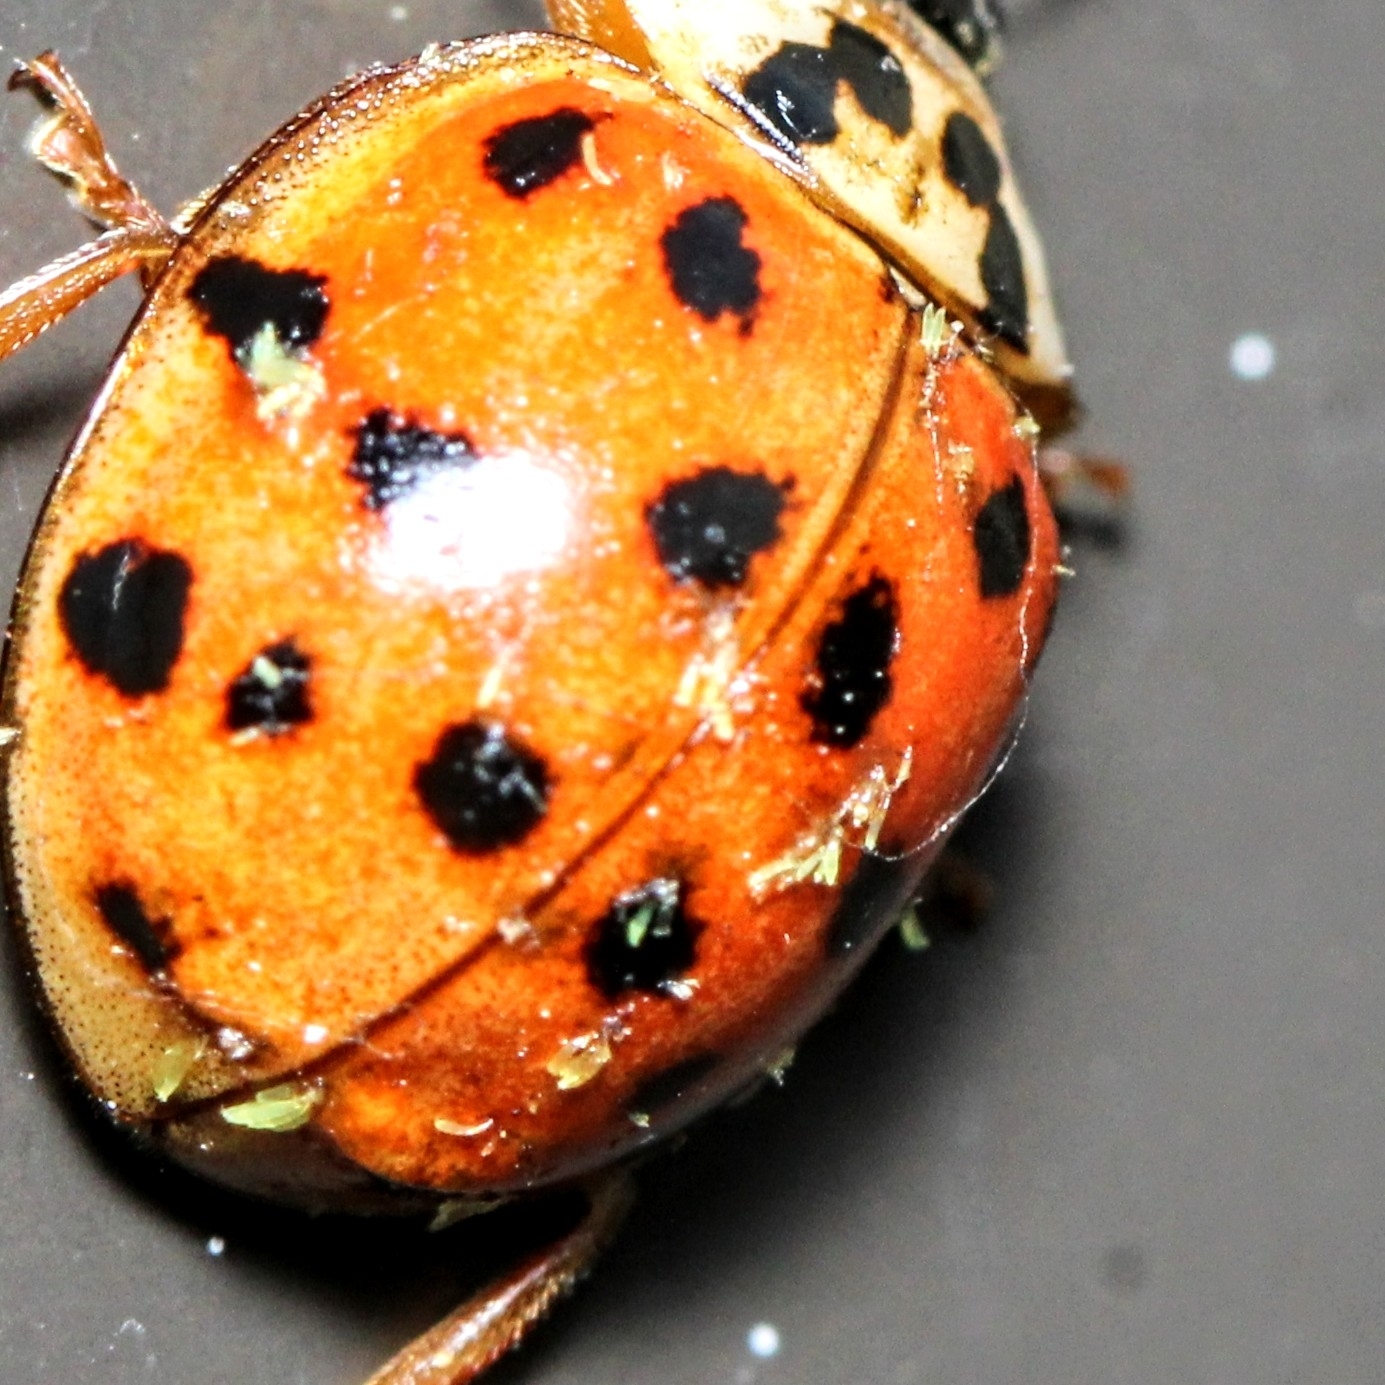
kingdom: Fungi
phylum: Ascomycota
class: Laboulbeniomycetes
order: Laboulbeniales
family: Laboulbeniaceae
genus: Hesperomyces
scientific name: Hesperomyces harmoniae
